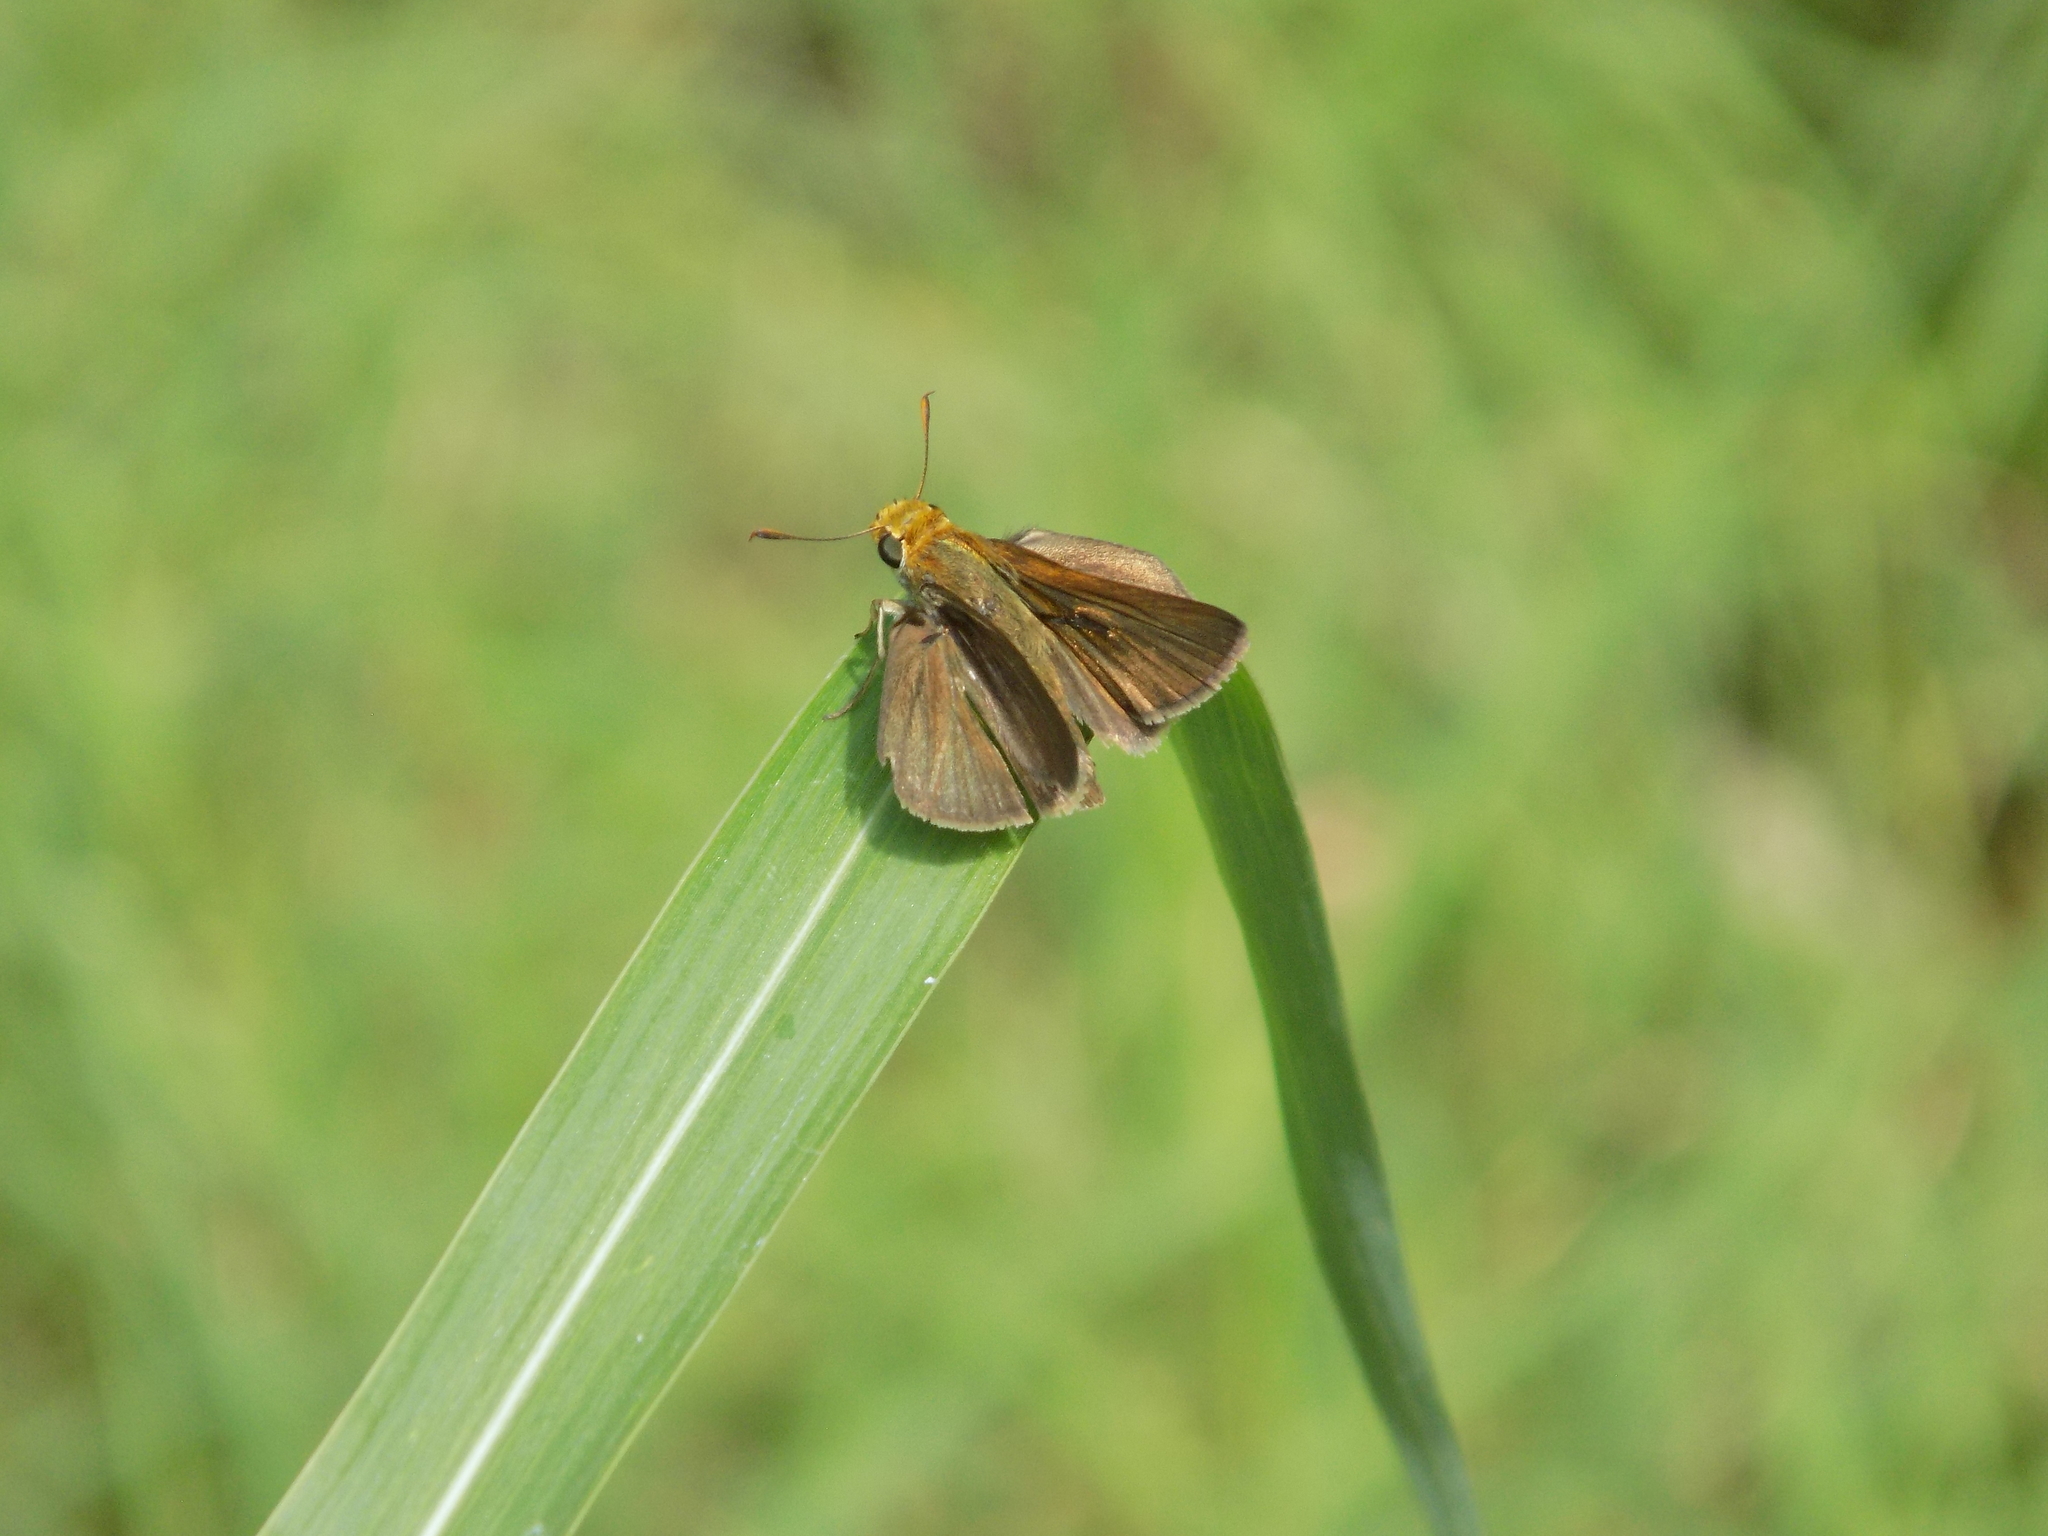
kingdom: Animalia
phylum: Arthropoda
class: Insecta
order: Lepidoptera
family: Hesperiidae
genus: Euphyes
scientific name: Euphyes vestris
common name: Dun skipper
